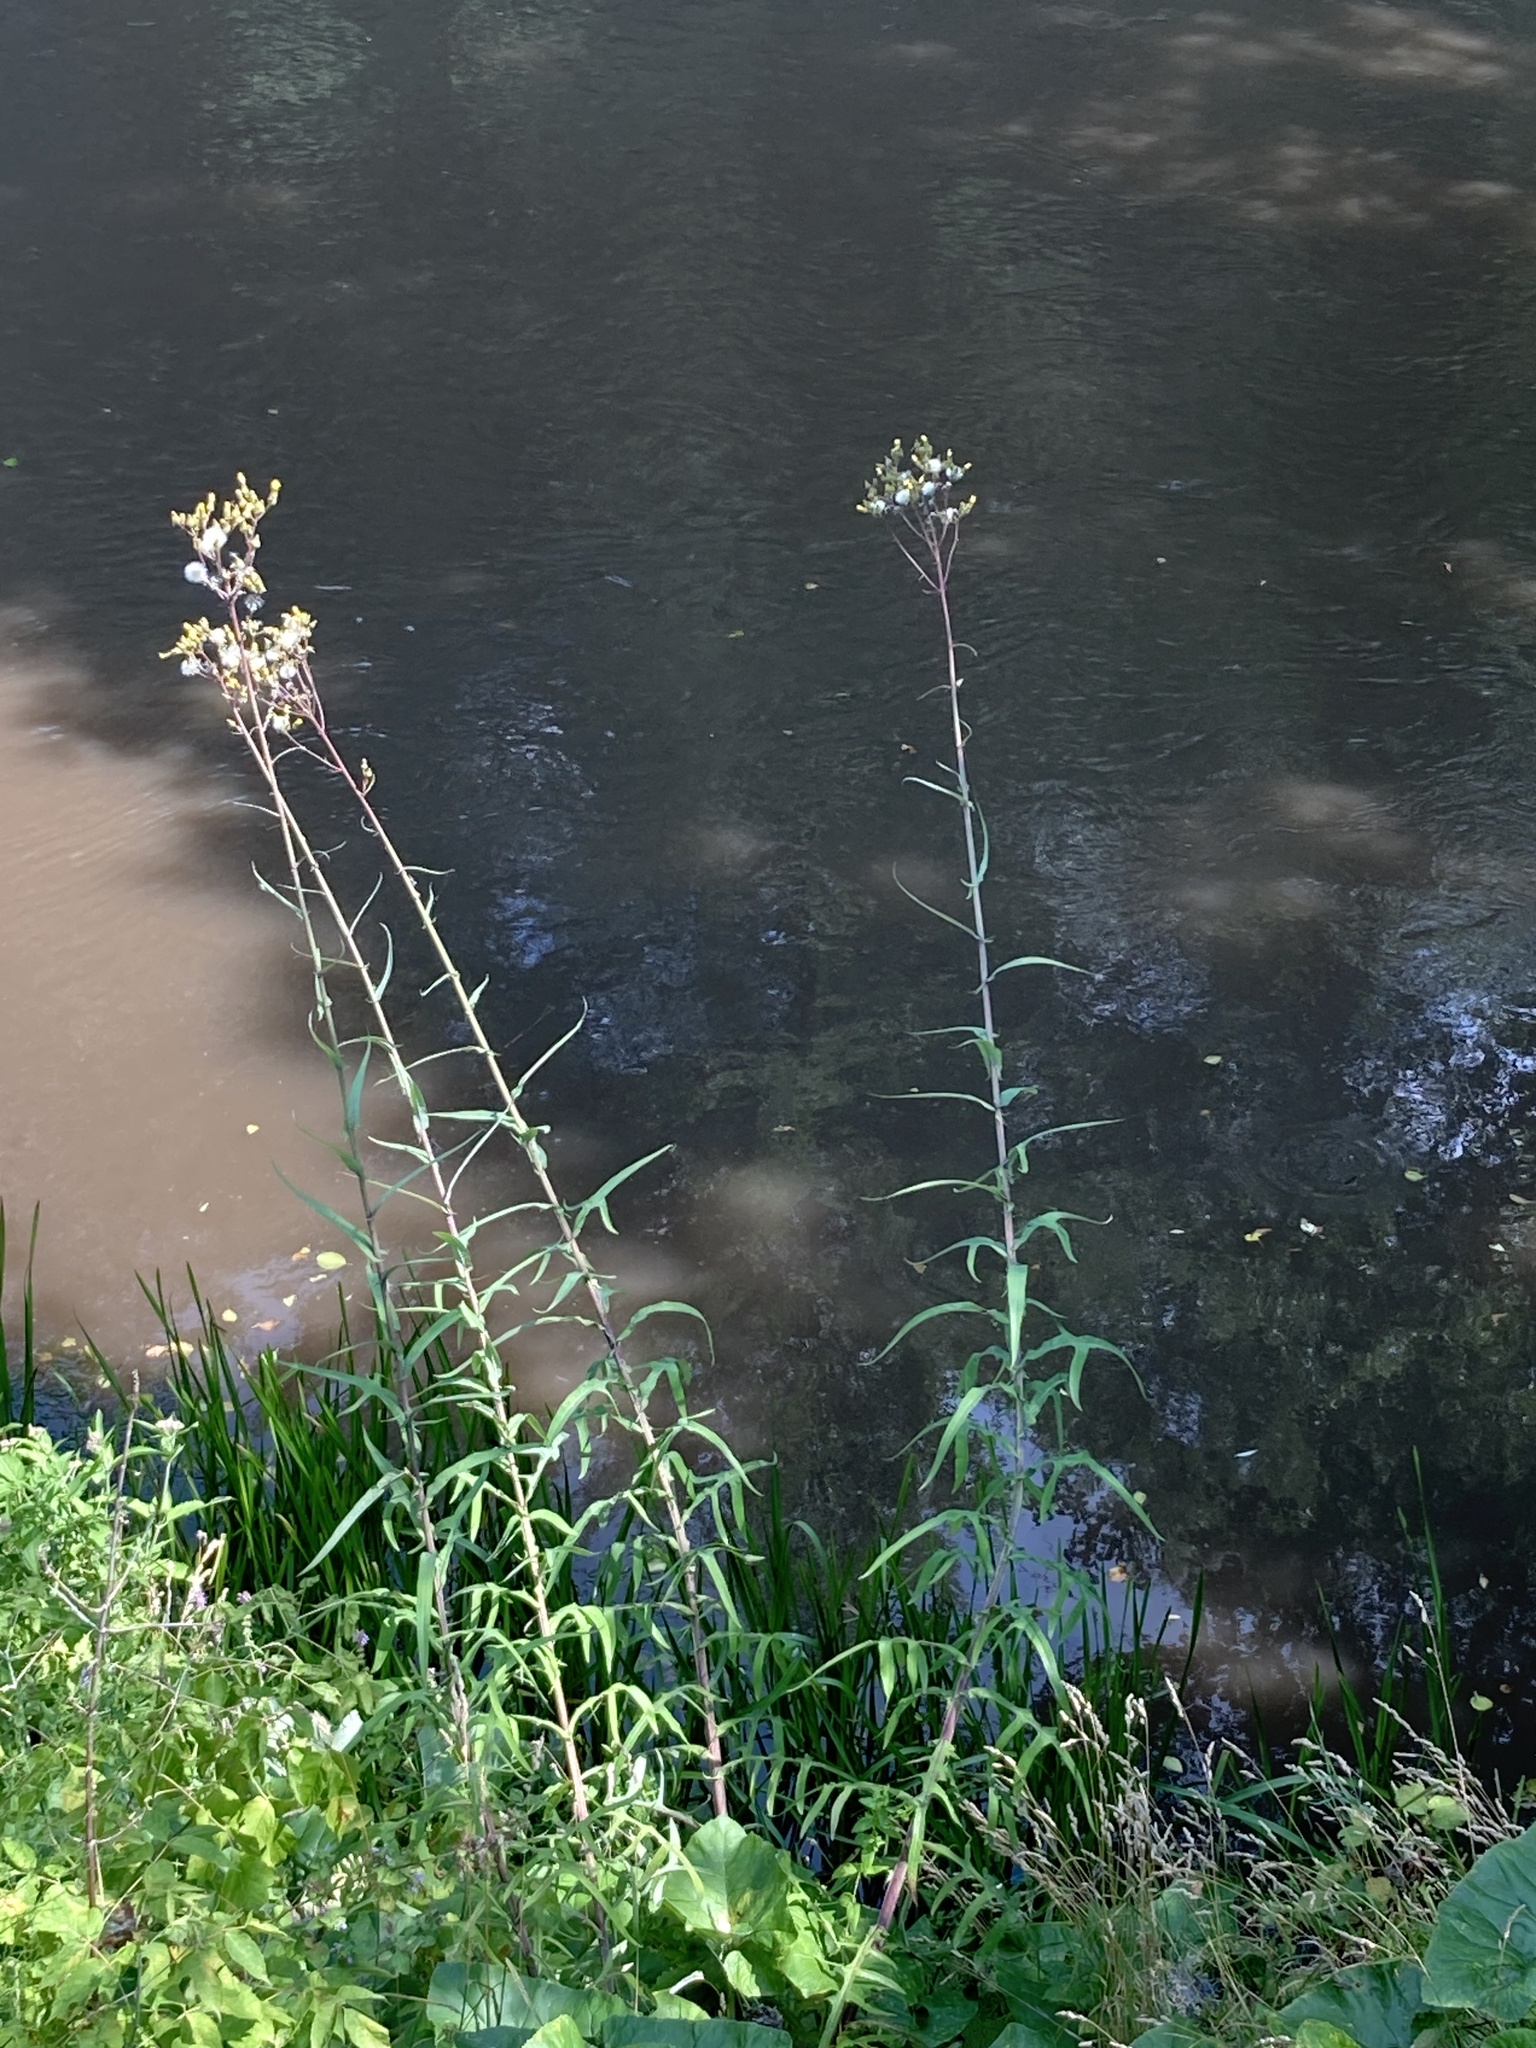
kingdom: Plantae
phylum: Tracheophyta
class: Magnoliopsida
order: Asterales
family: Asteraceae
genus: Sonchus
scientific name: Sonchus palustris
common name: Marsh sow-thistle
